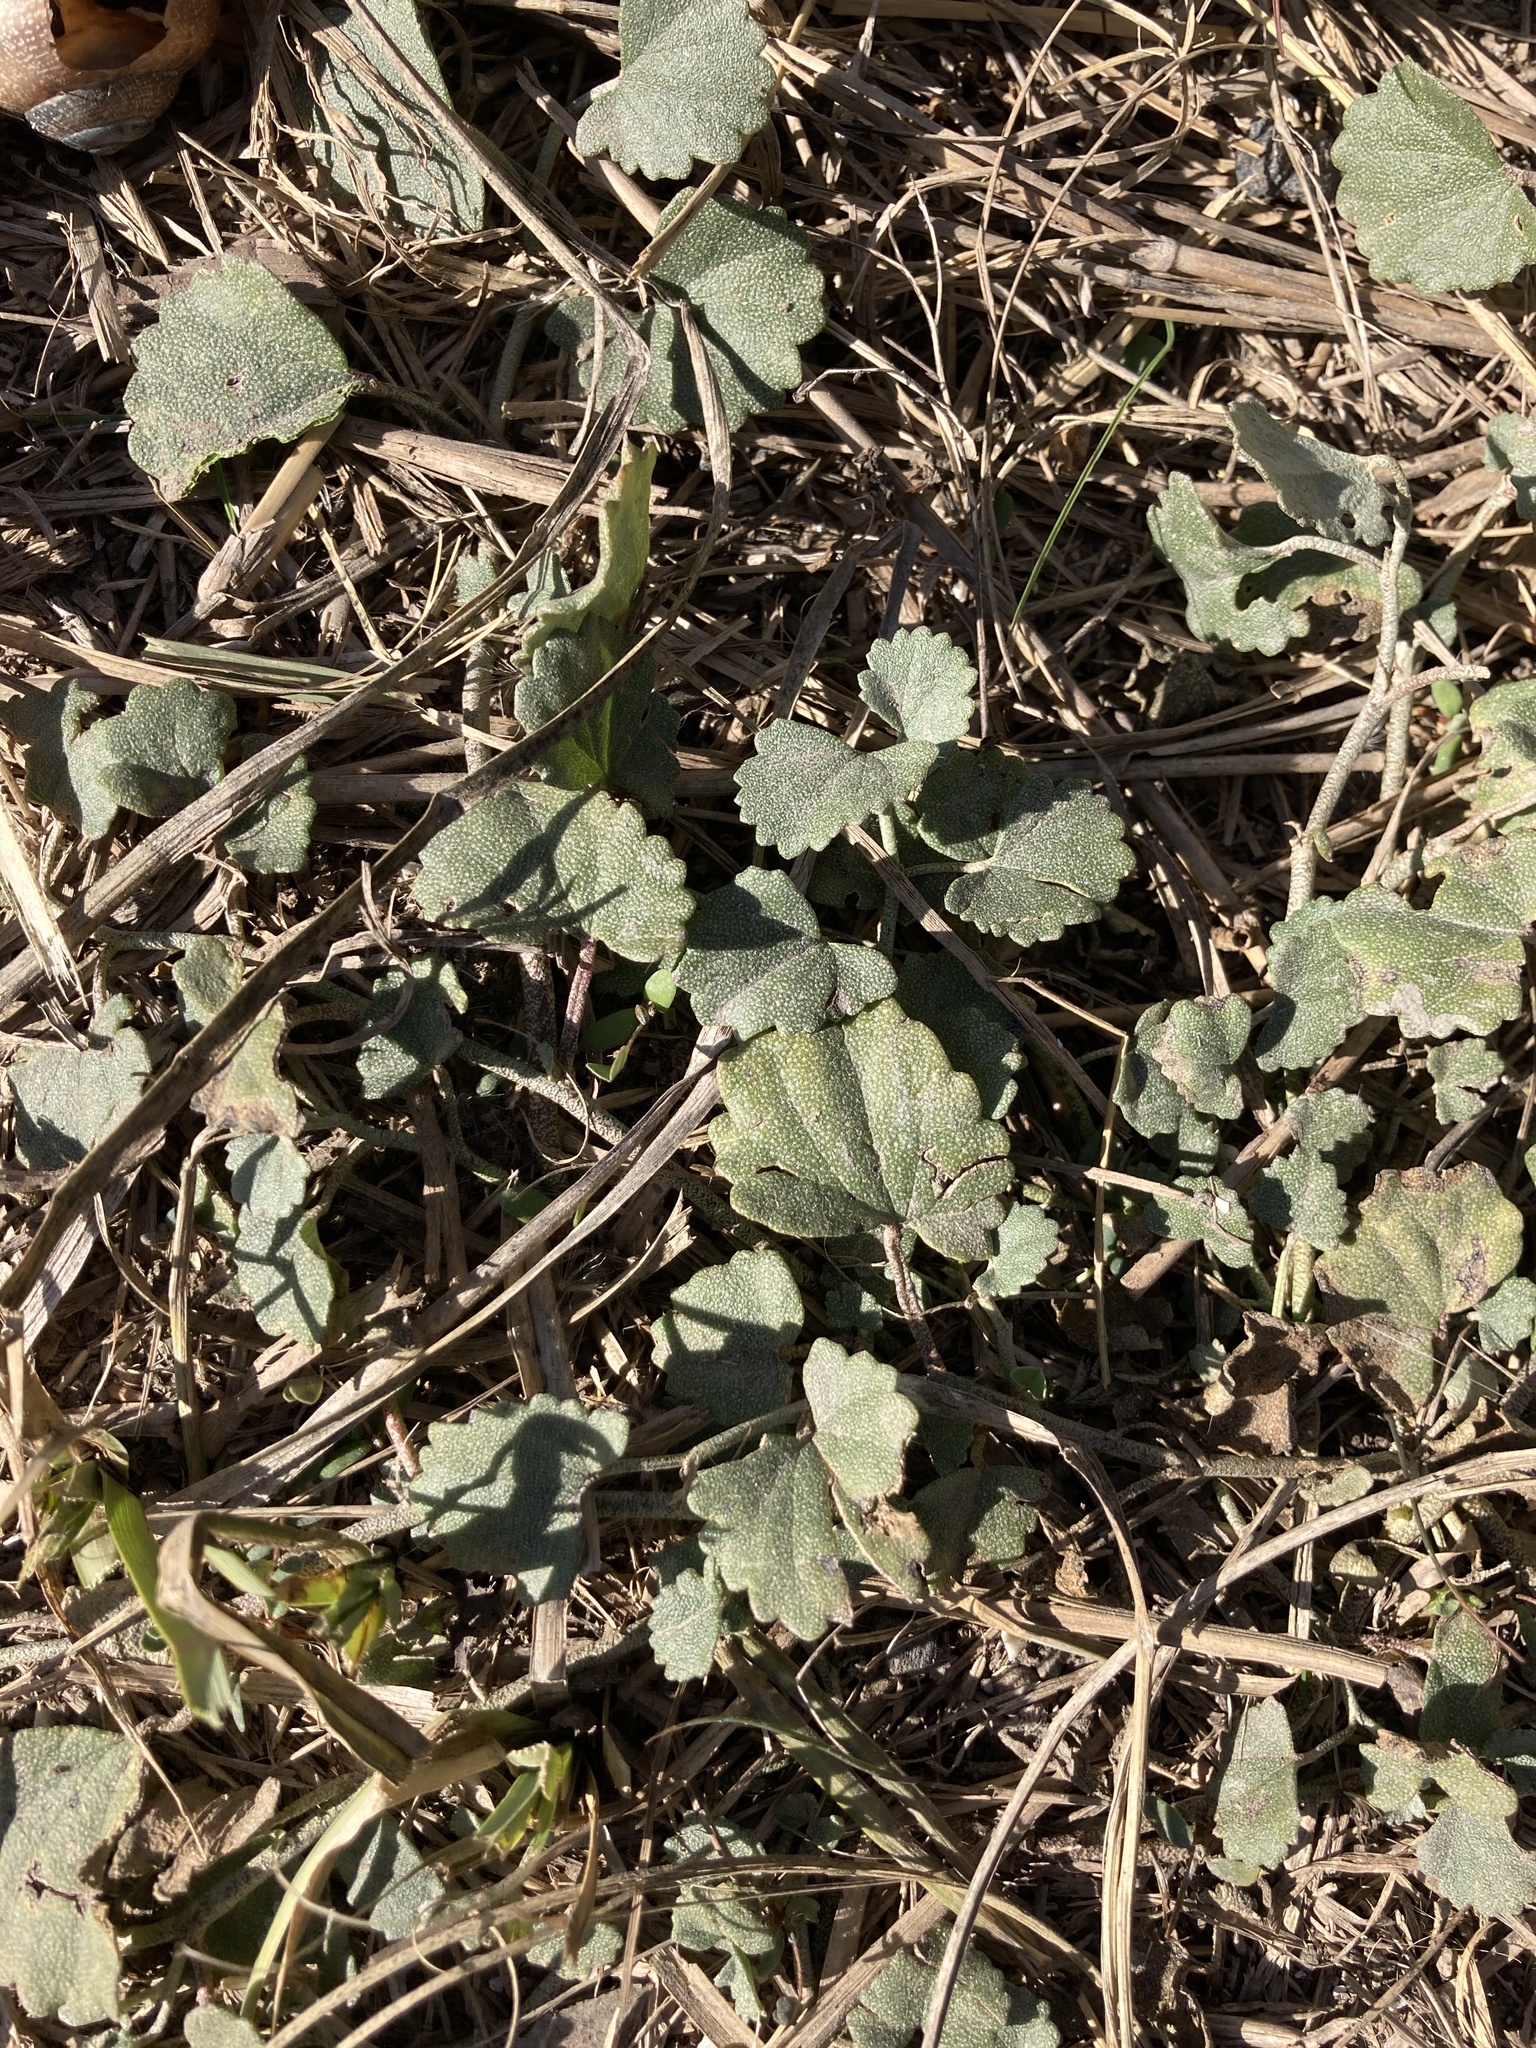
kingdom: Plantae
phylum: Tracheophyta
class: Magnoliopsida
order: Malvales
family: Malvaceae
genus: Malvella
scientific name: Malvella leprosa
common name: Alkali-mallow
